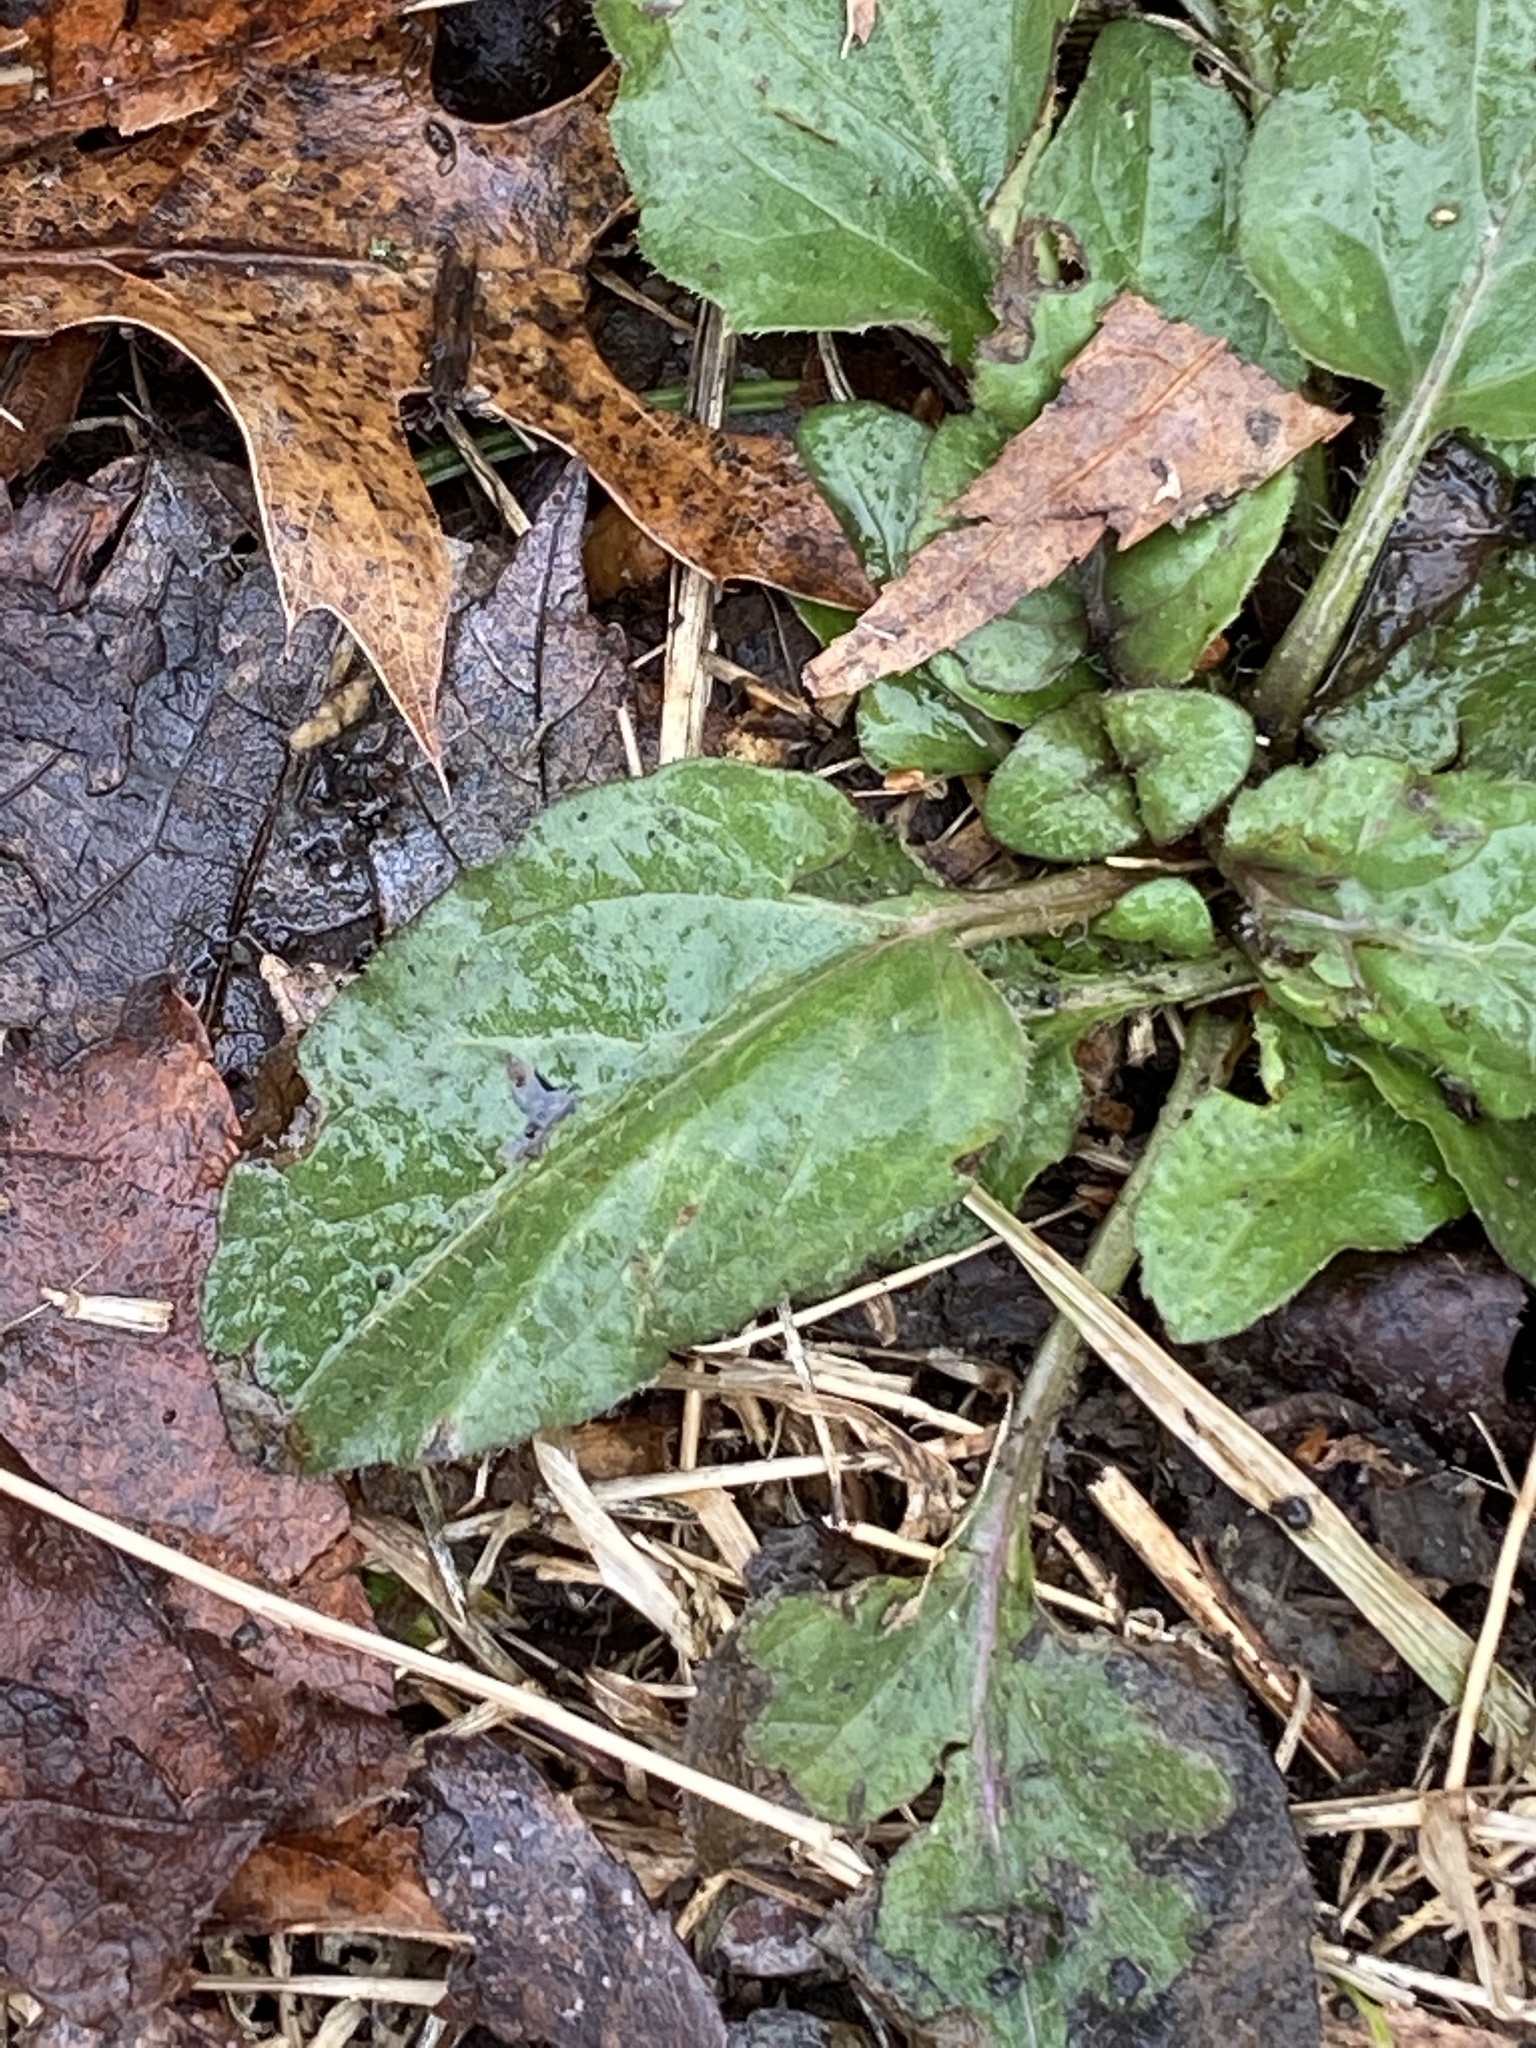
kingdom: Plantae
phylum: Tracheophyta
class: Magnoliopsida
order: Lamiales
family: Lamiaceae
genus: Prunella
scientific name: Prunella vulgaris
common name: Heal-all
